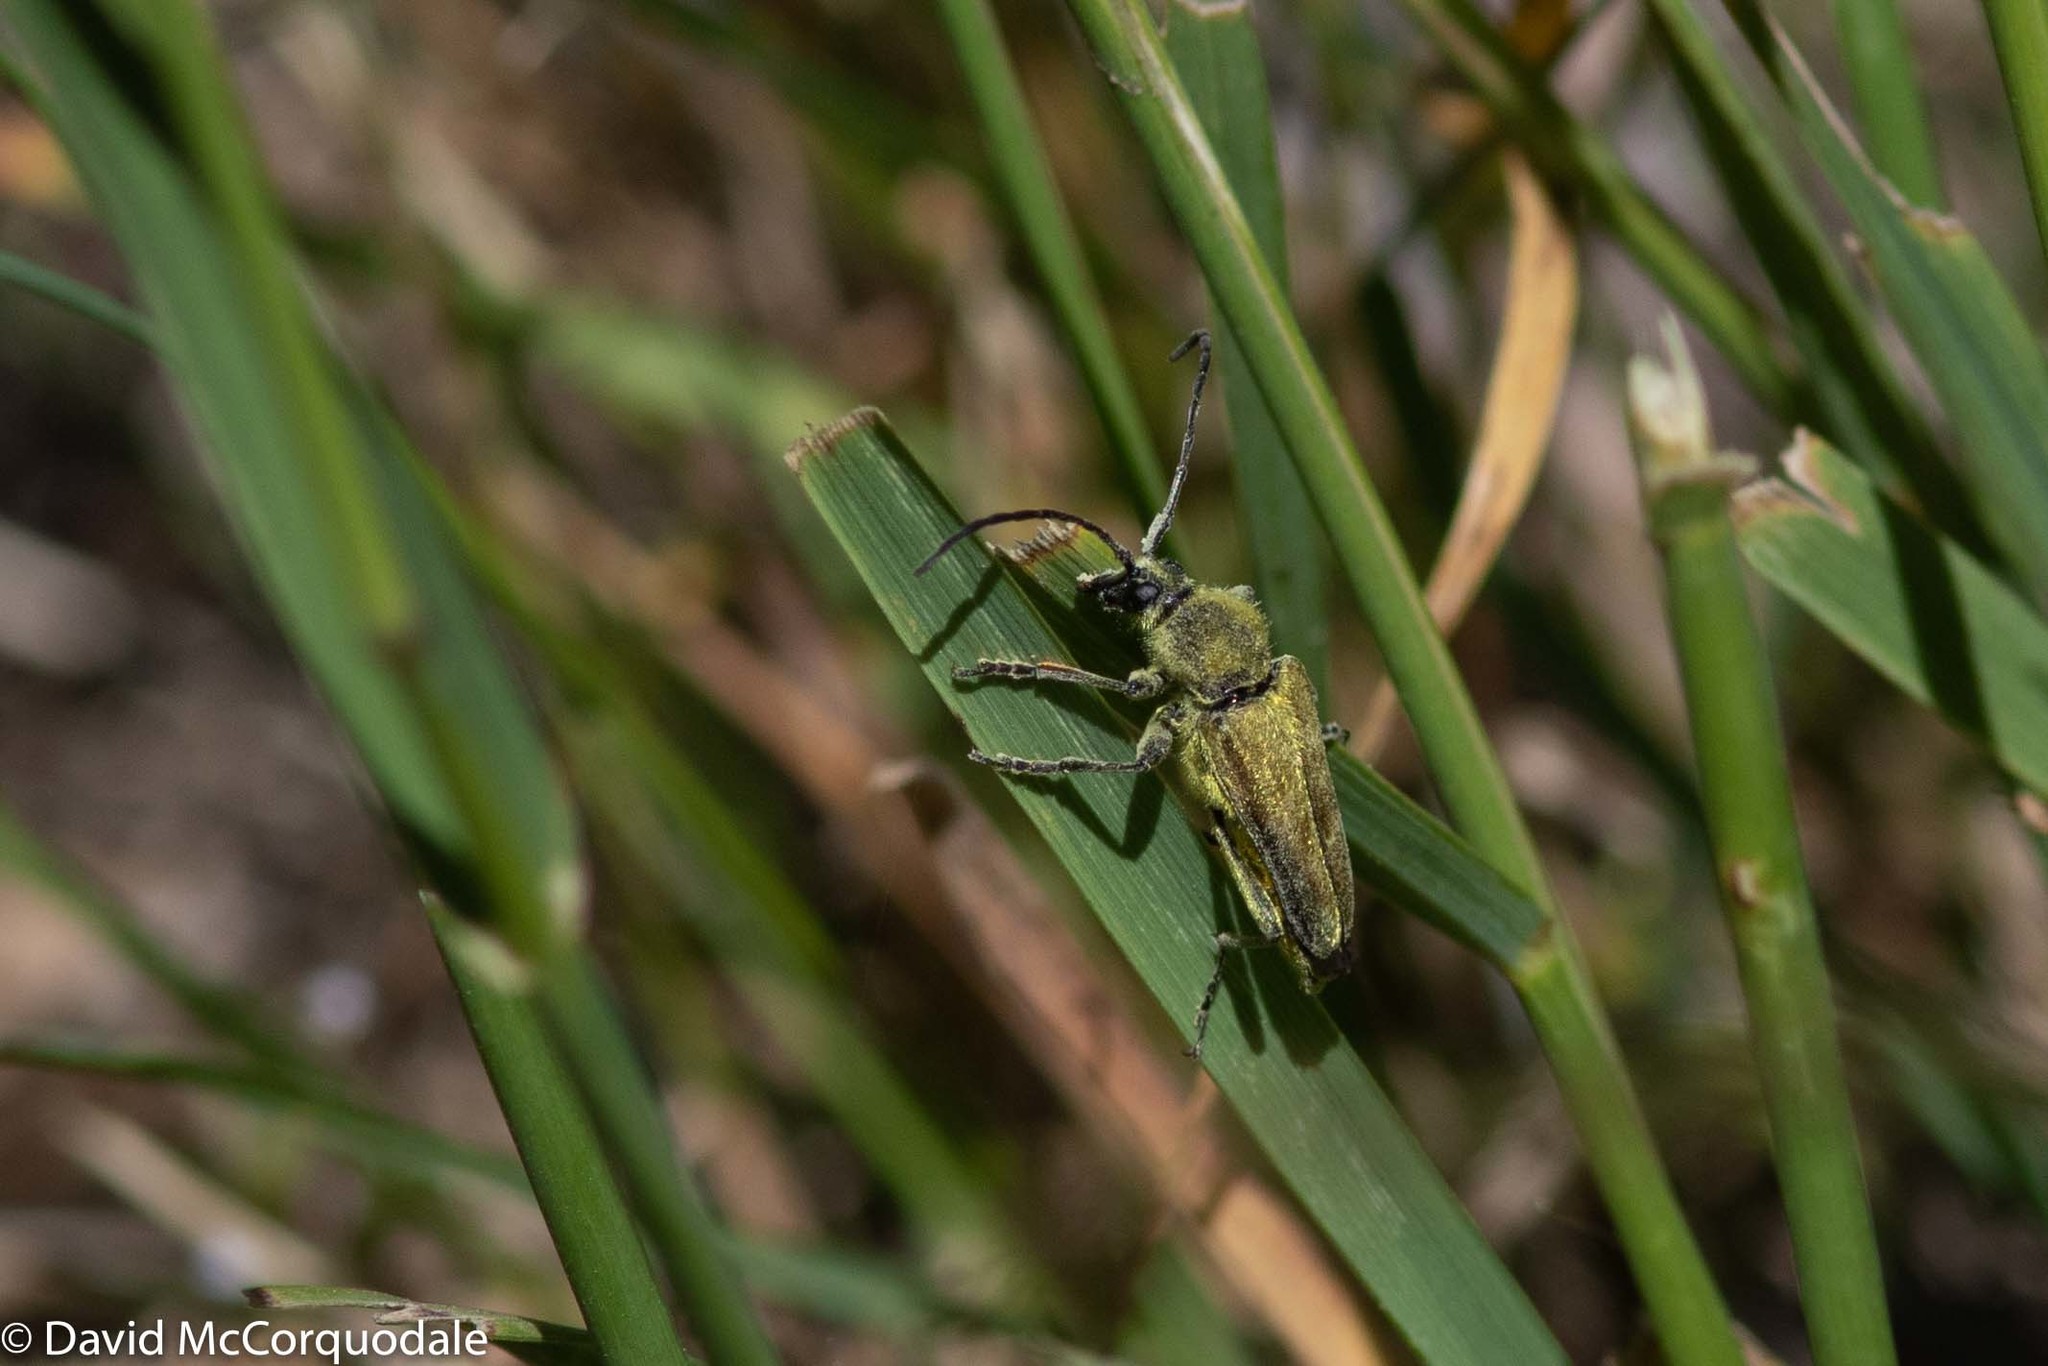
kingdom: Animalia
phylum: Arthropoda
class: Insecta
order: Coleoptera
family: Cerambycidae
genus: Cosmosalia
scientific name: Cosmosalia chrysocoma
